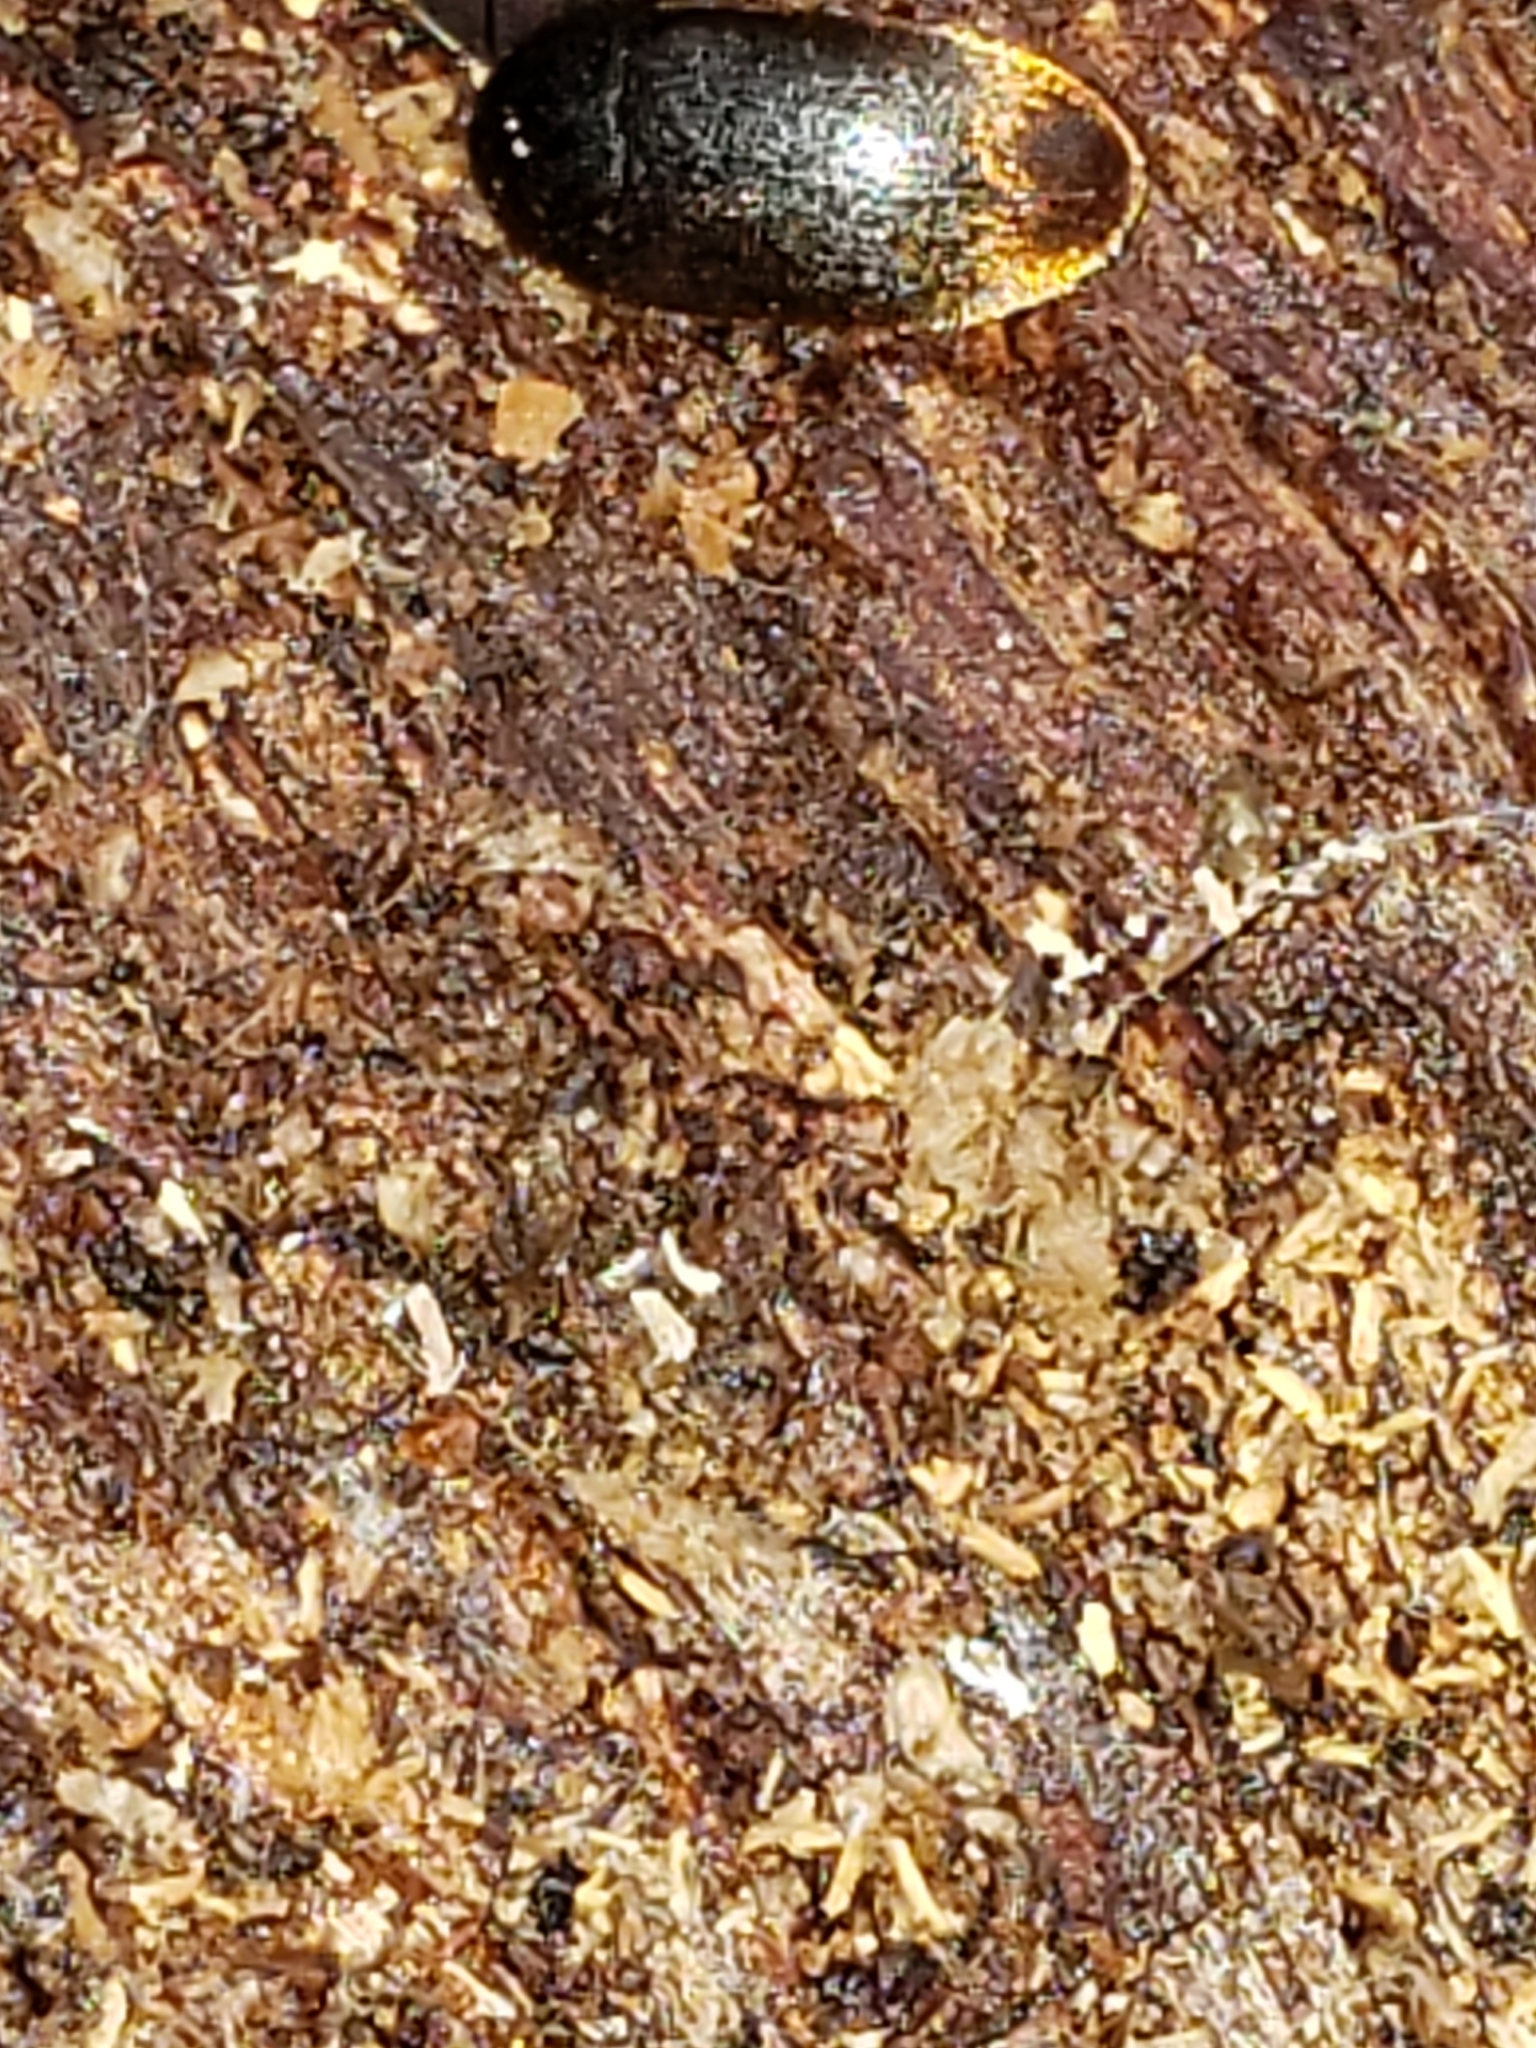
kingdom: Animalia
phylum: Arthropoda
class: Insecta
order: Coleoptera
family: Tetratomidae
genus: Eustrophus
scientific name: Eustrophus tomentosus
